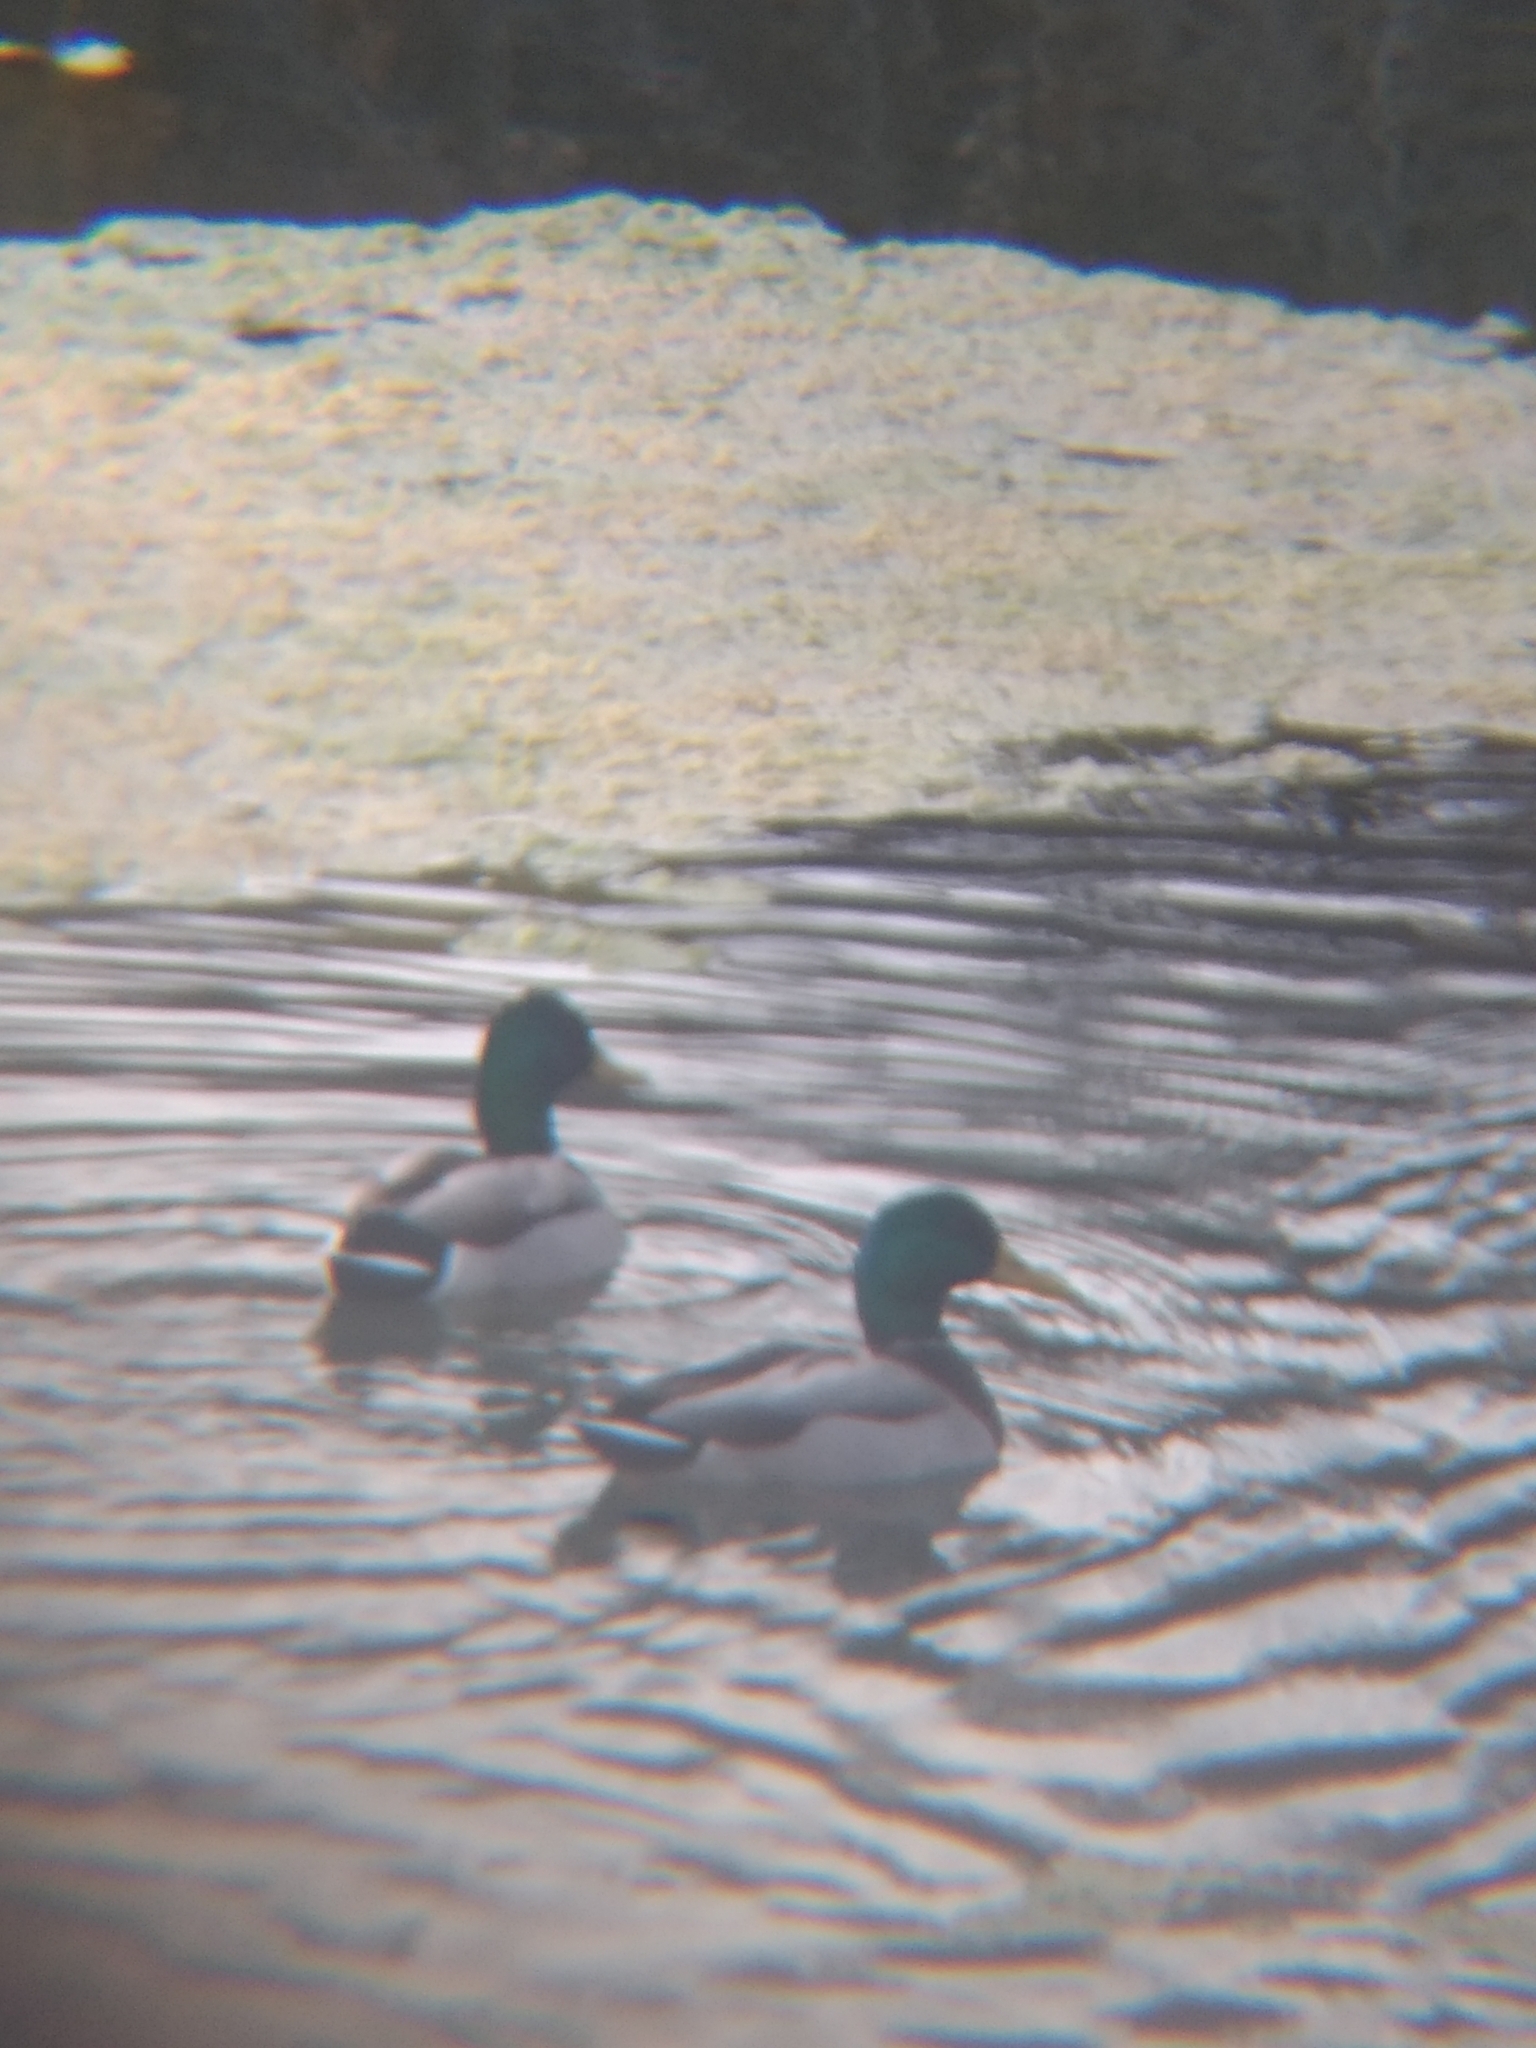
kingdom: Animalia
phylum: Chordata
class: Aves
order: Anseriformes
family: Anatidae
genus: Anas
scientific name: Anas platyrhynchos
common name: Mallard
